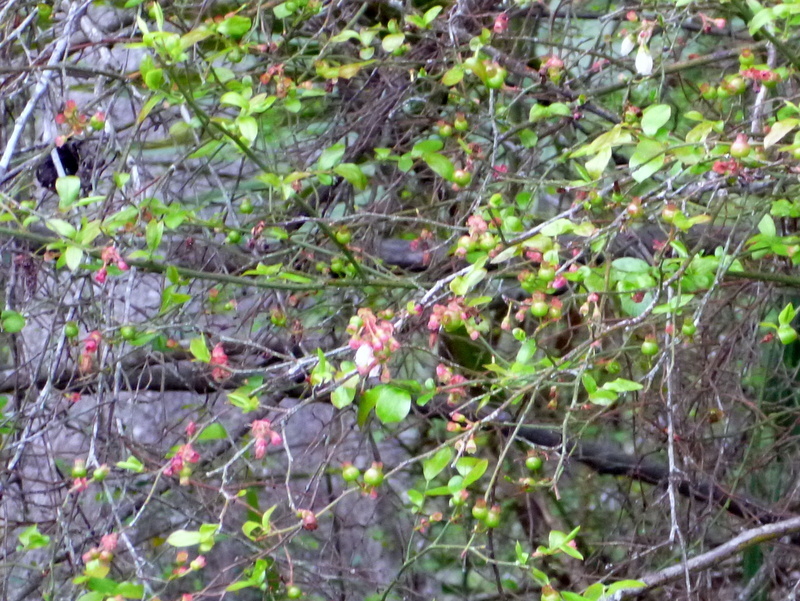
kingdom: Plantae
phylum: Tracheophyta
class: Magnoliopsida
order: Ericales
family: Ericaceae
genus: Vaccinium
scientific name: Vaccinium corymbosum
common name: Blueberry
